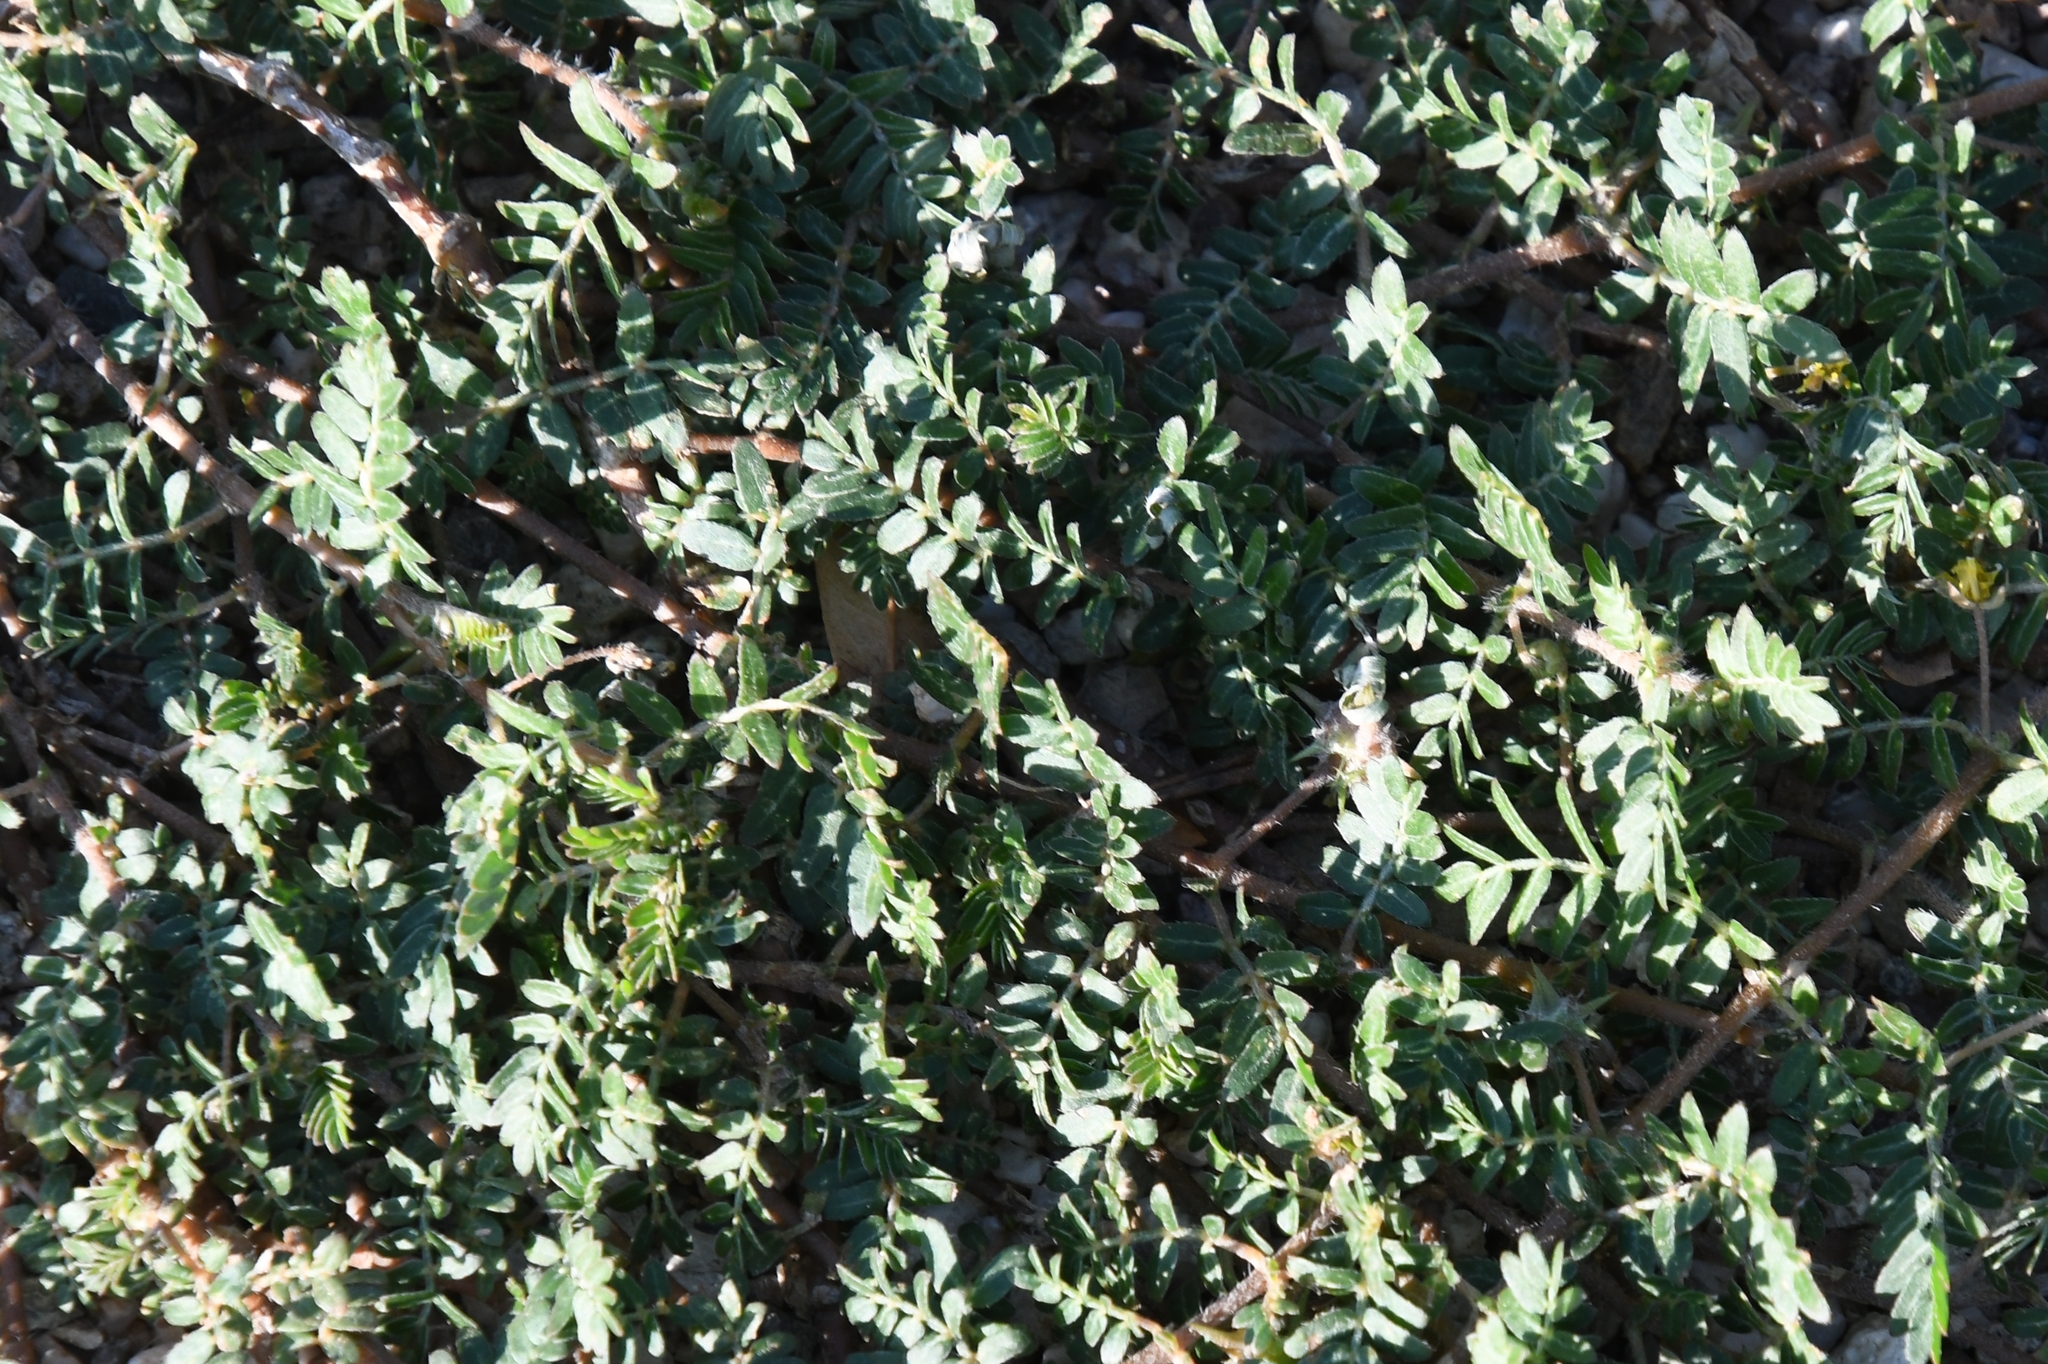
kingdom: Plantae
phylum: Tracheophyta
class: Magnoliopsida
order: Zygophyllales
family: Zygophyllaceae
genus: Tribulus
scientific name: Tribulus terrestris
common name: Puncturevine
